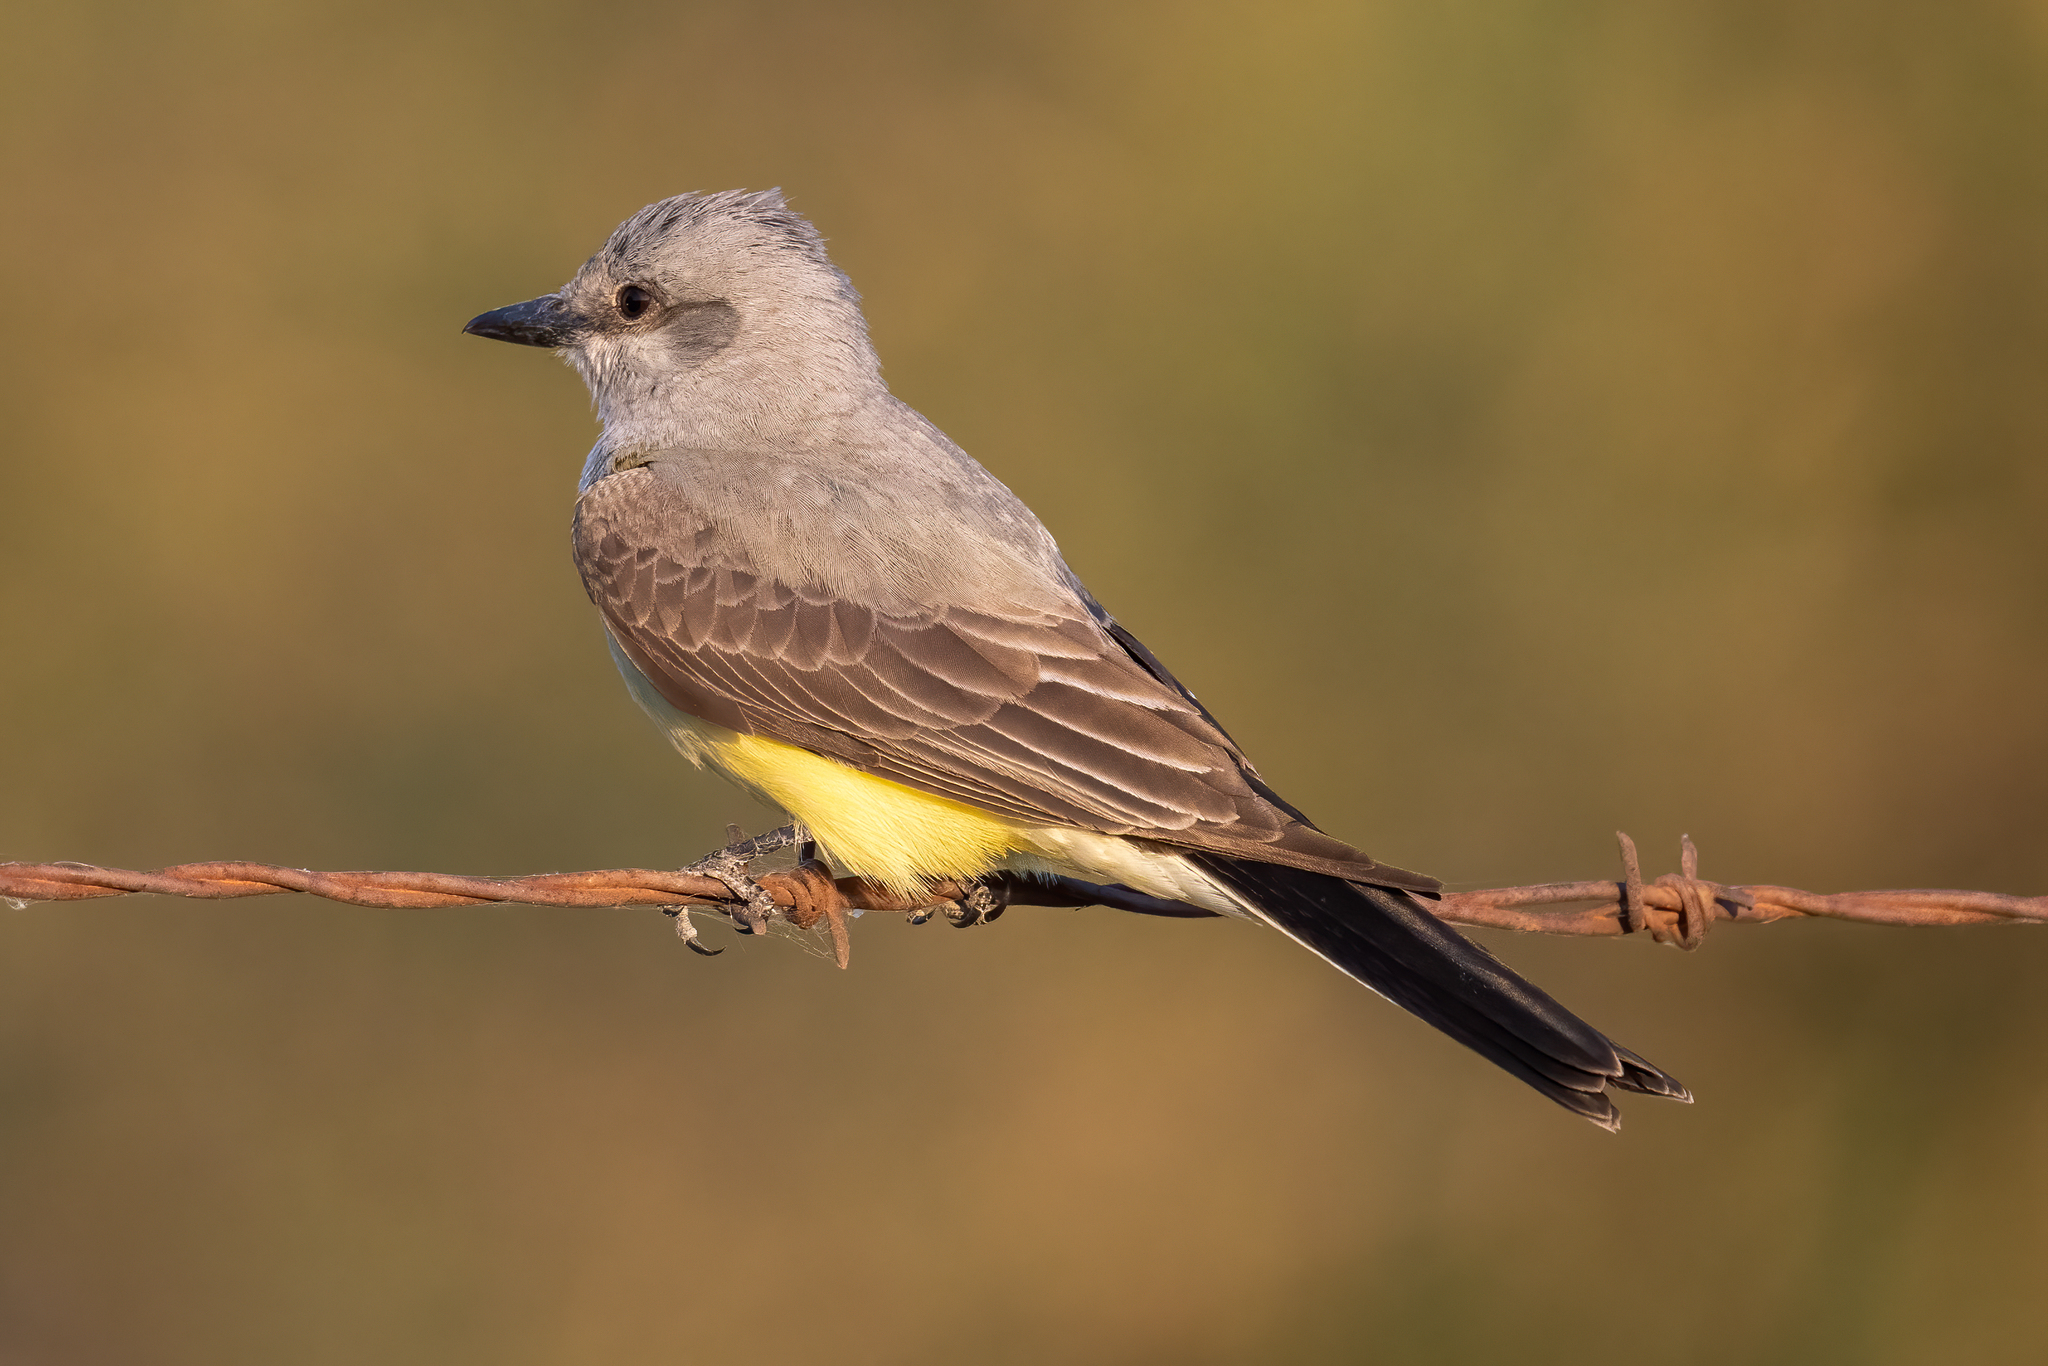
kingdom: Animalia
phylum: Chordata
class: Aves
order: Passeriformes
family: Tyrannidae
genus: Tyrannus
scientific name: Tyrannus verticalis
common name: Western kingbird
